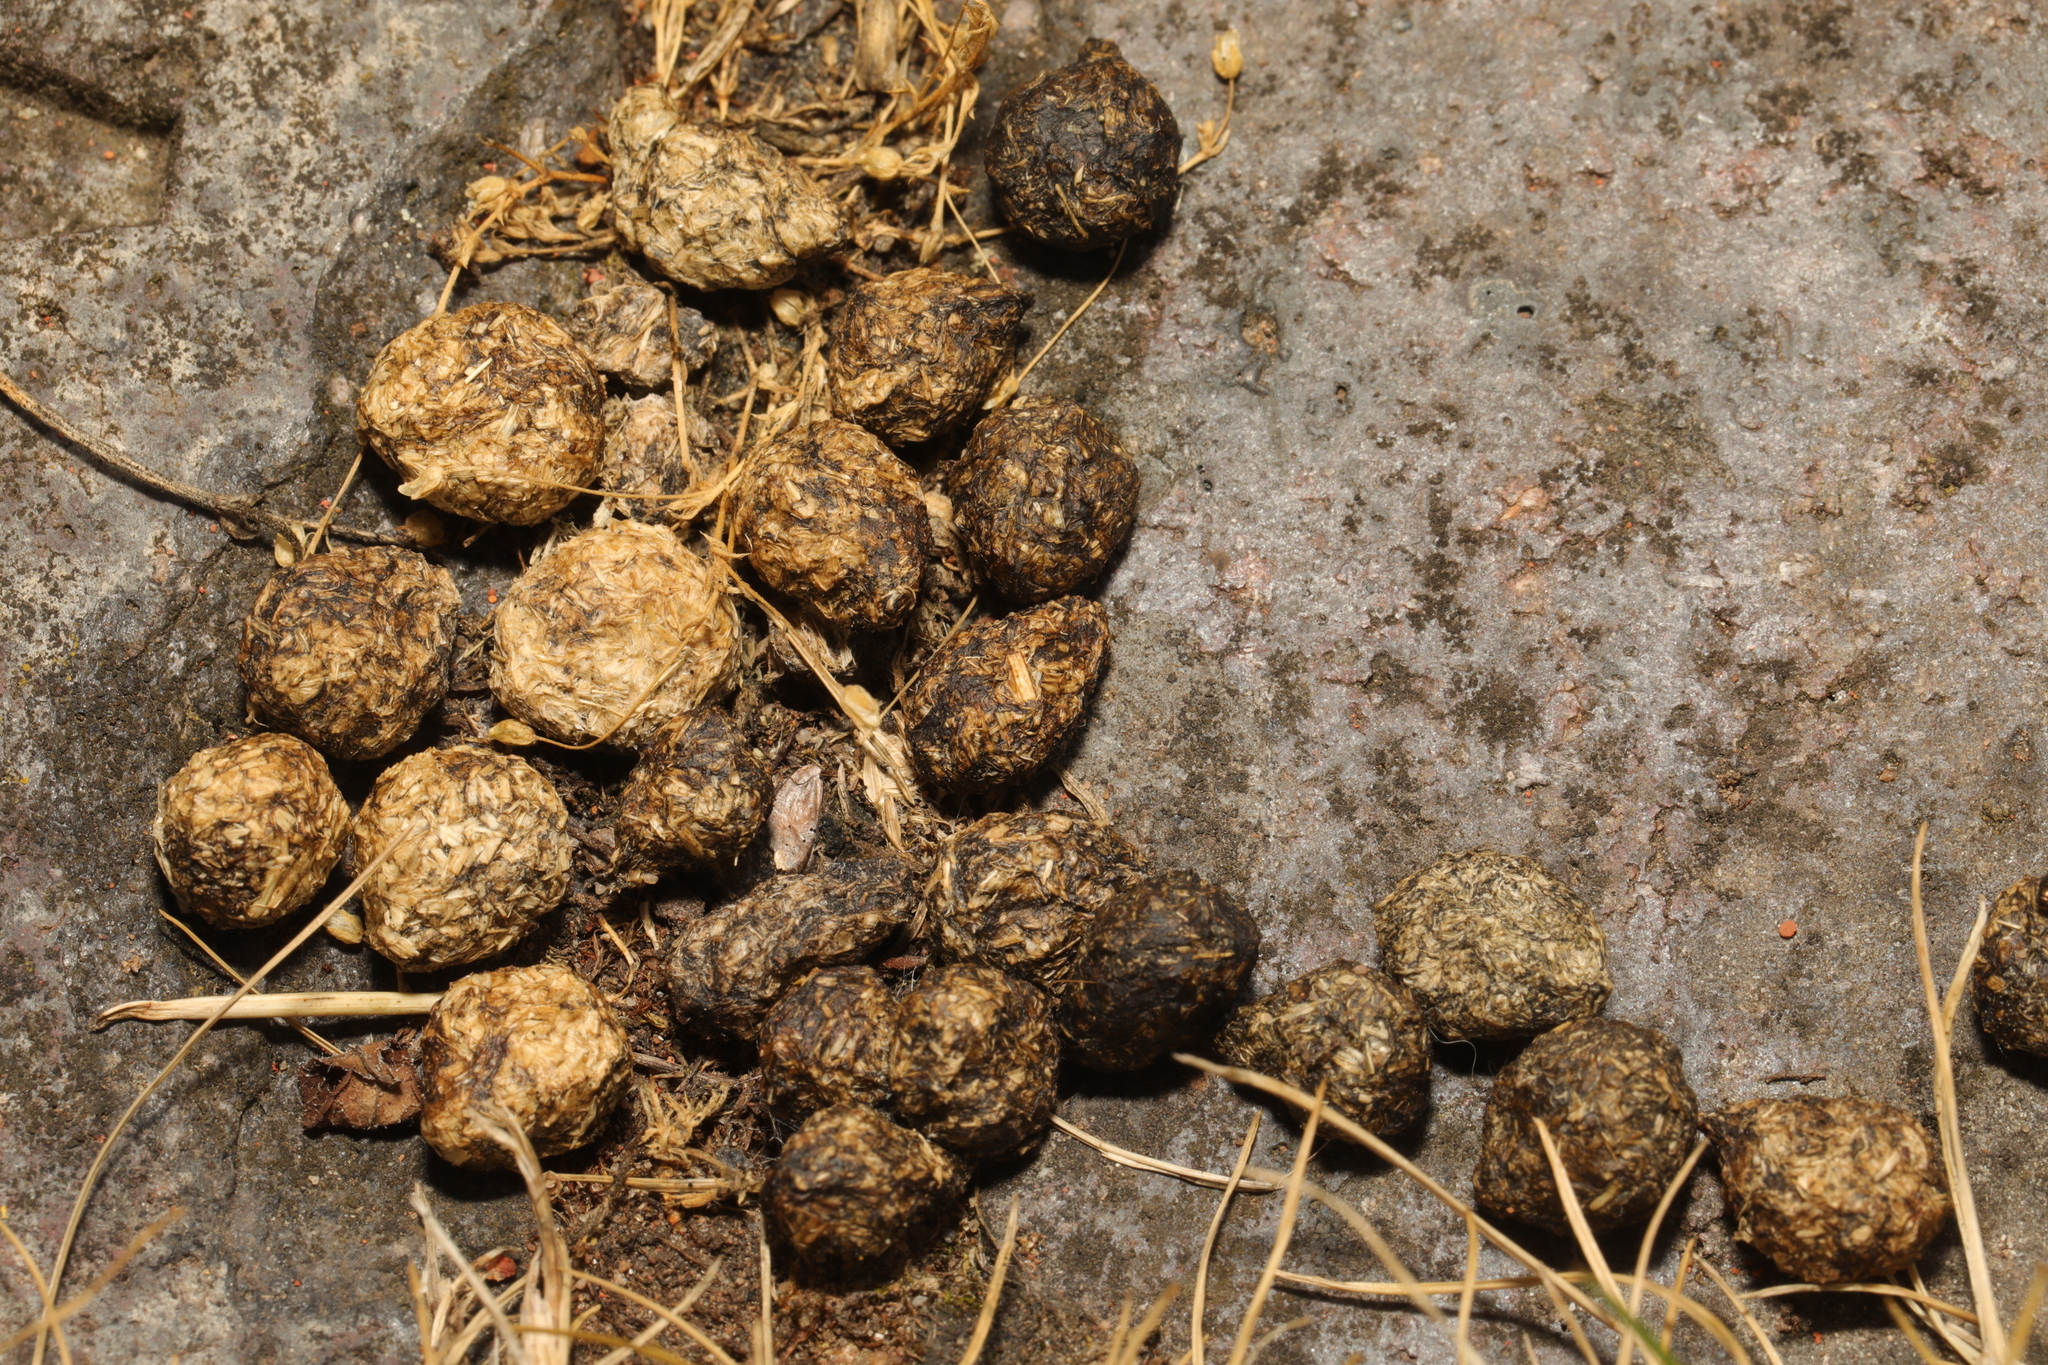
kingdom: Animalia
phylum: Chordata
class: Mammalia
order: Lagomorpha
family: Leporidae
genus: Oryctolagus
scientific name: Oryctolagus cuniculus
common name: European rabbit
